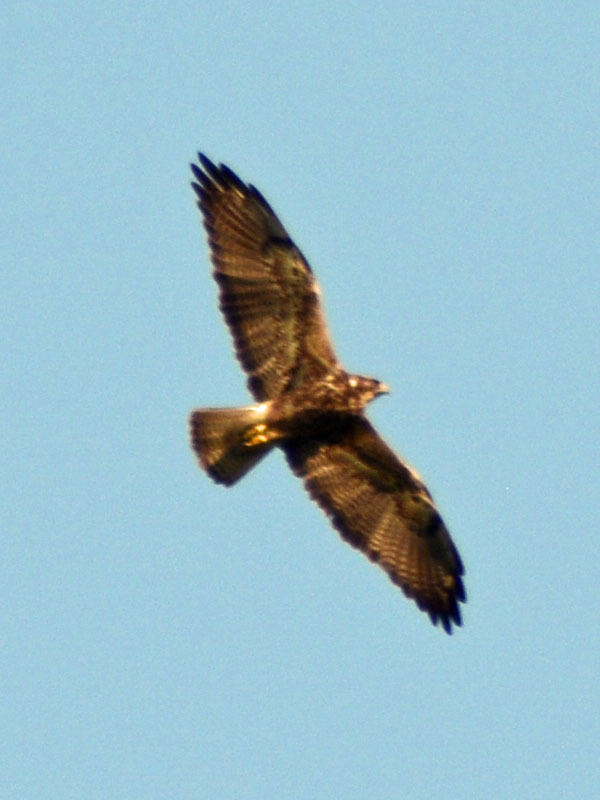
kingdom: Animalia
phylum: Chordata
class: Aves
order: Accipitriformes
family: Accipitridae
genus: Buteo
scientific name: Buteo swainsoni
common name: Swainson's hawk
